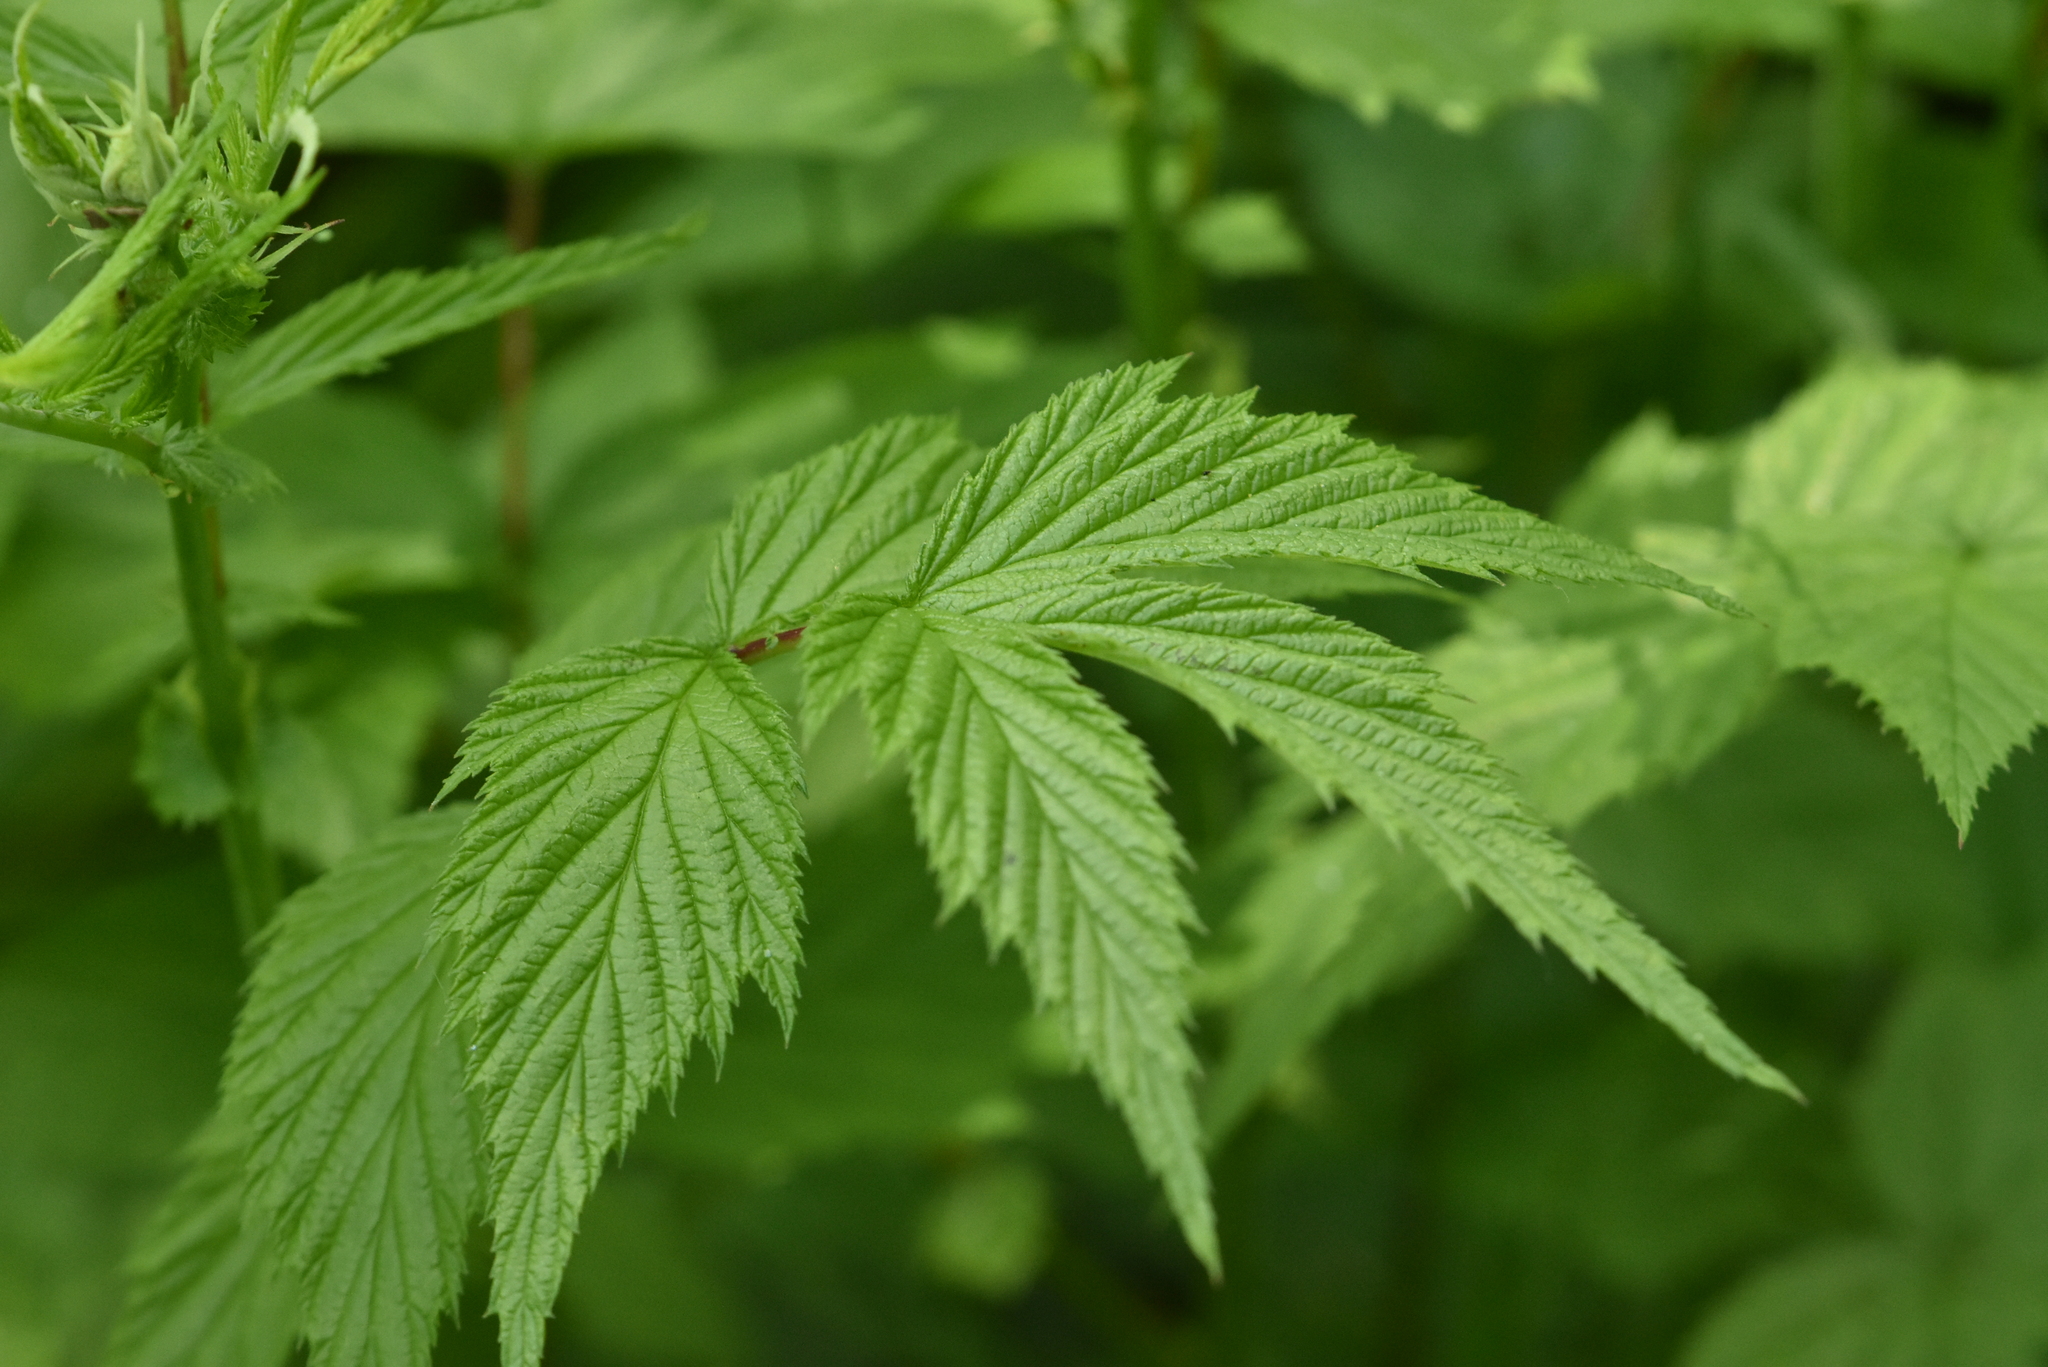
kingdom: Plantae
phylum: Tracheophyta
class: Magnoliopsida
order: Rosales
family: Rosaceae
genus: Filipendula
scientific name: Filipendula ulmaria
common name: Meadowsweet
